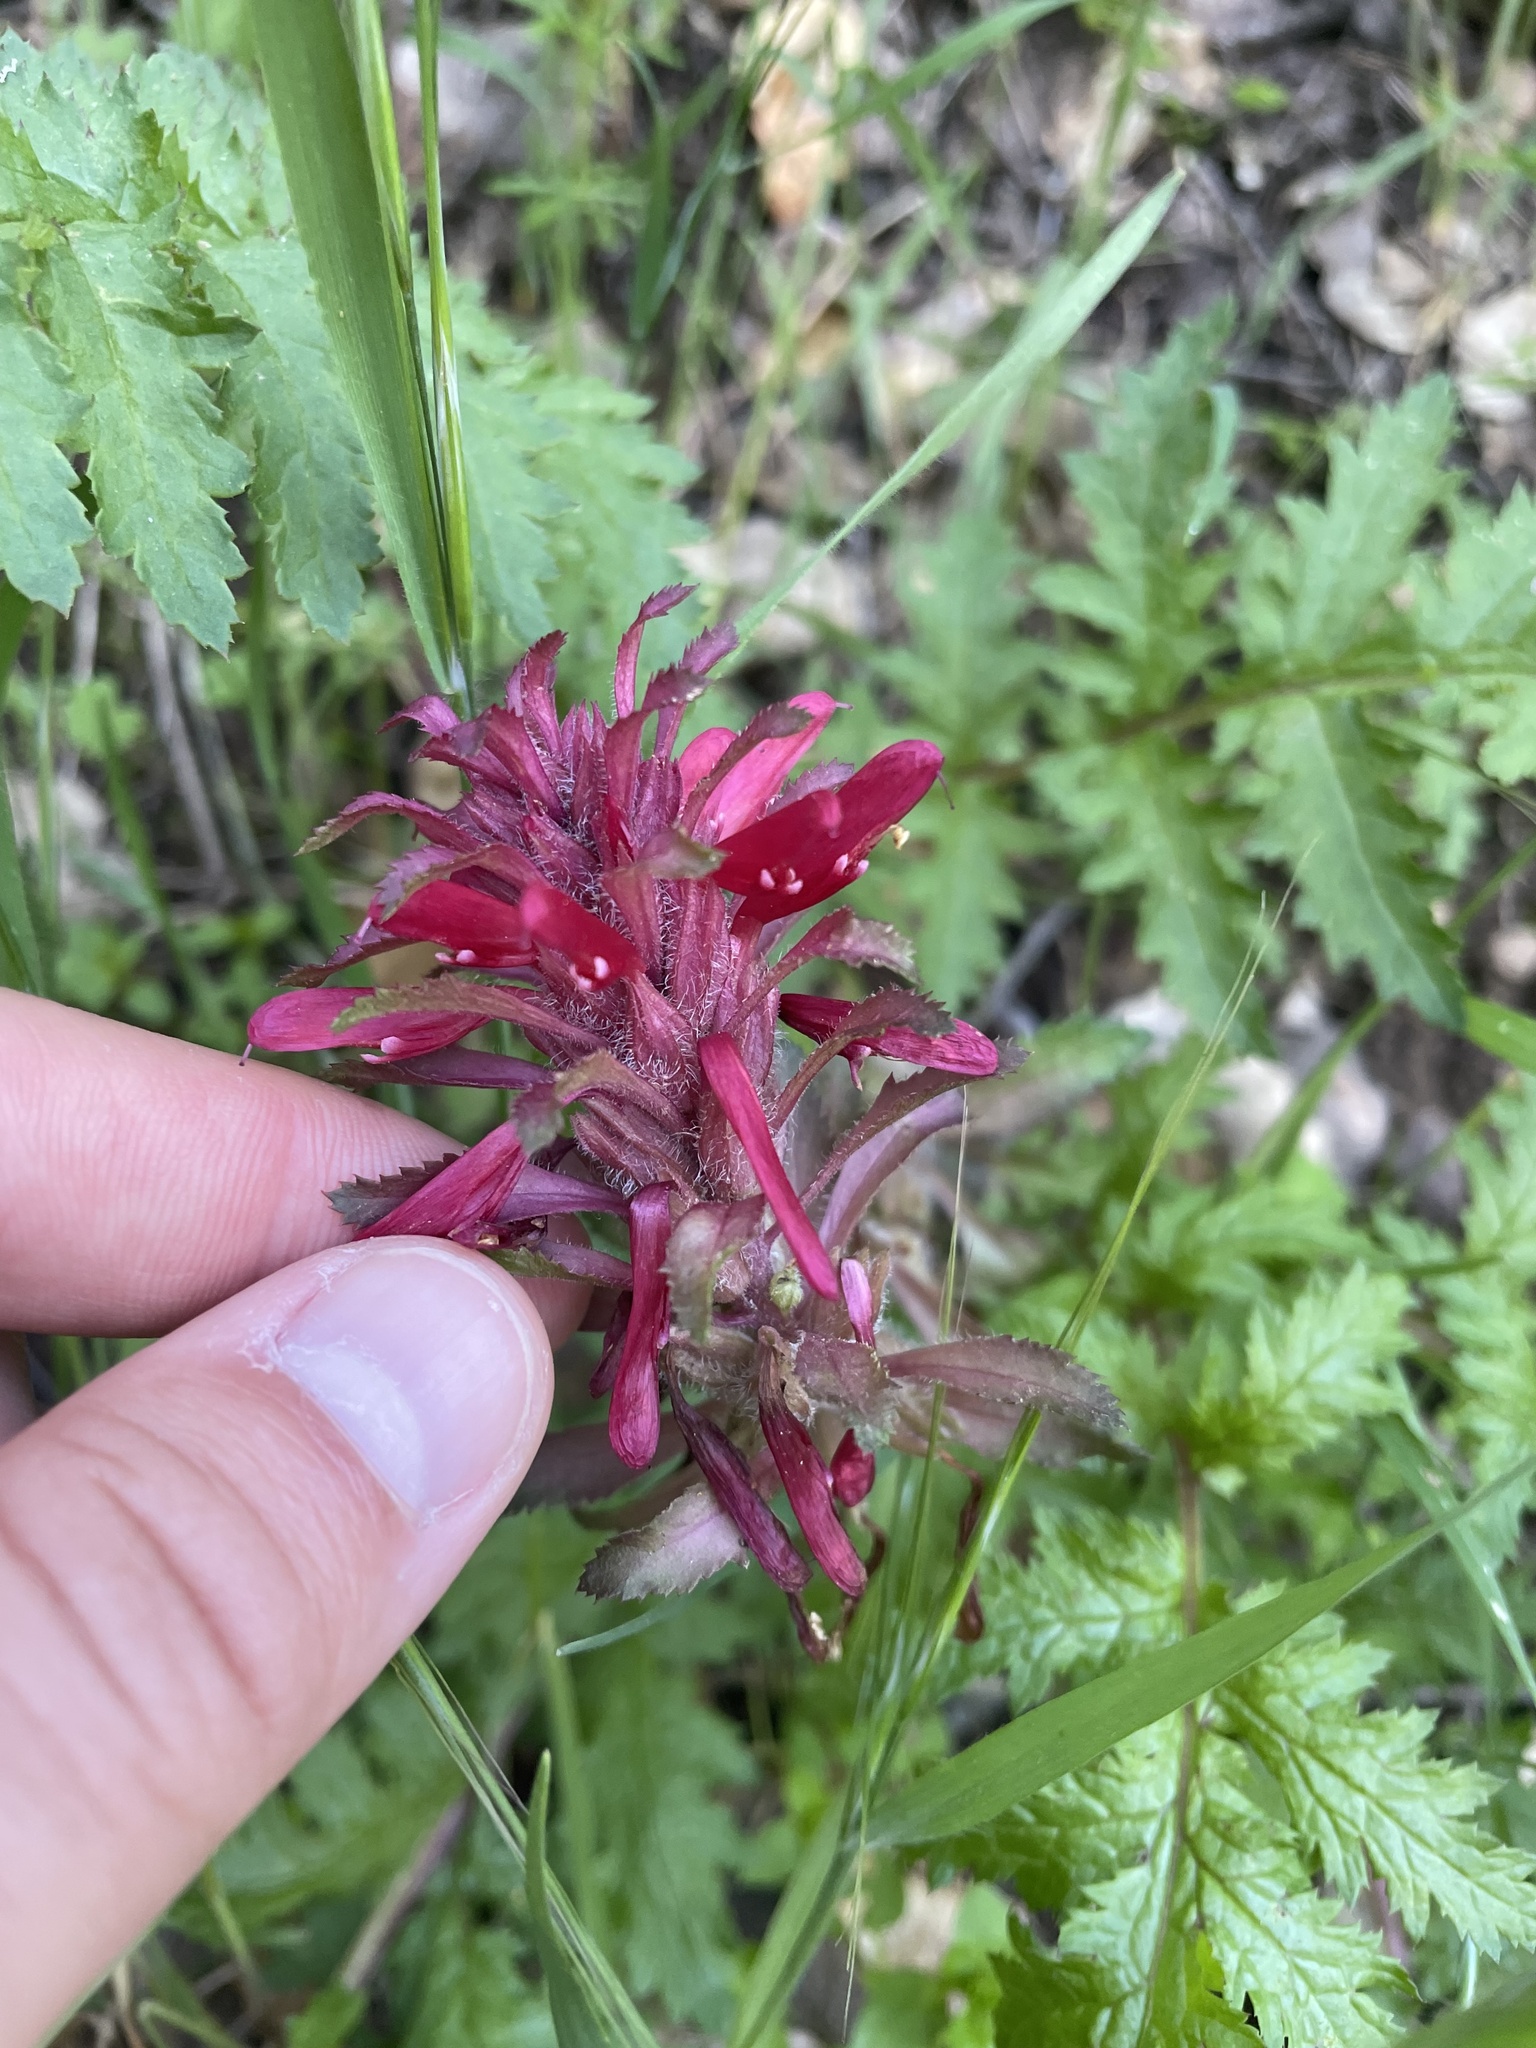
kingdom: Plantae
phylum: Tracheophyta
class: Magnoliopsida
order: Lamiales
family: Orobanchaceae
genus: Pedicularis
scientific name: Pedicularis densiflora
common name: Indian warrior
